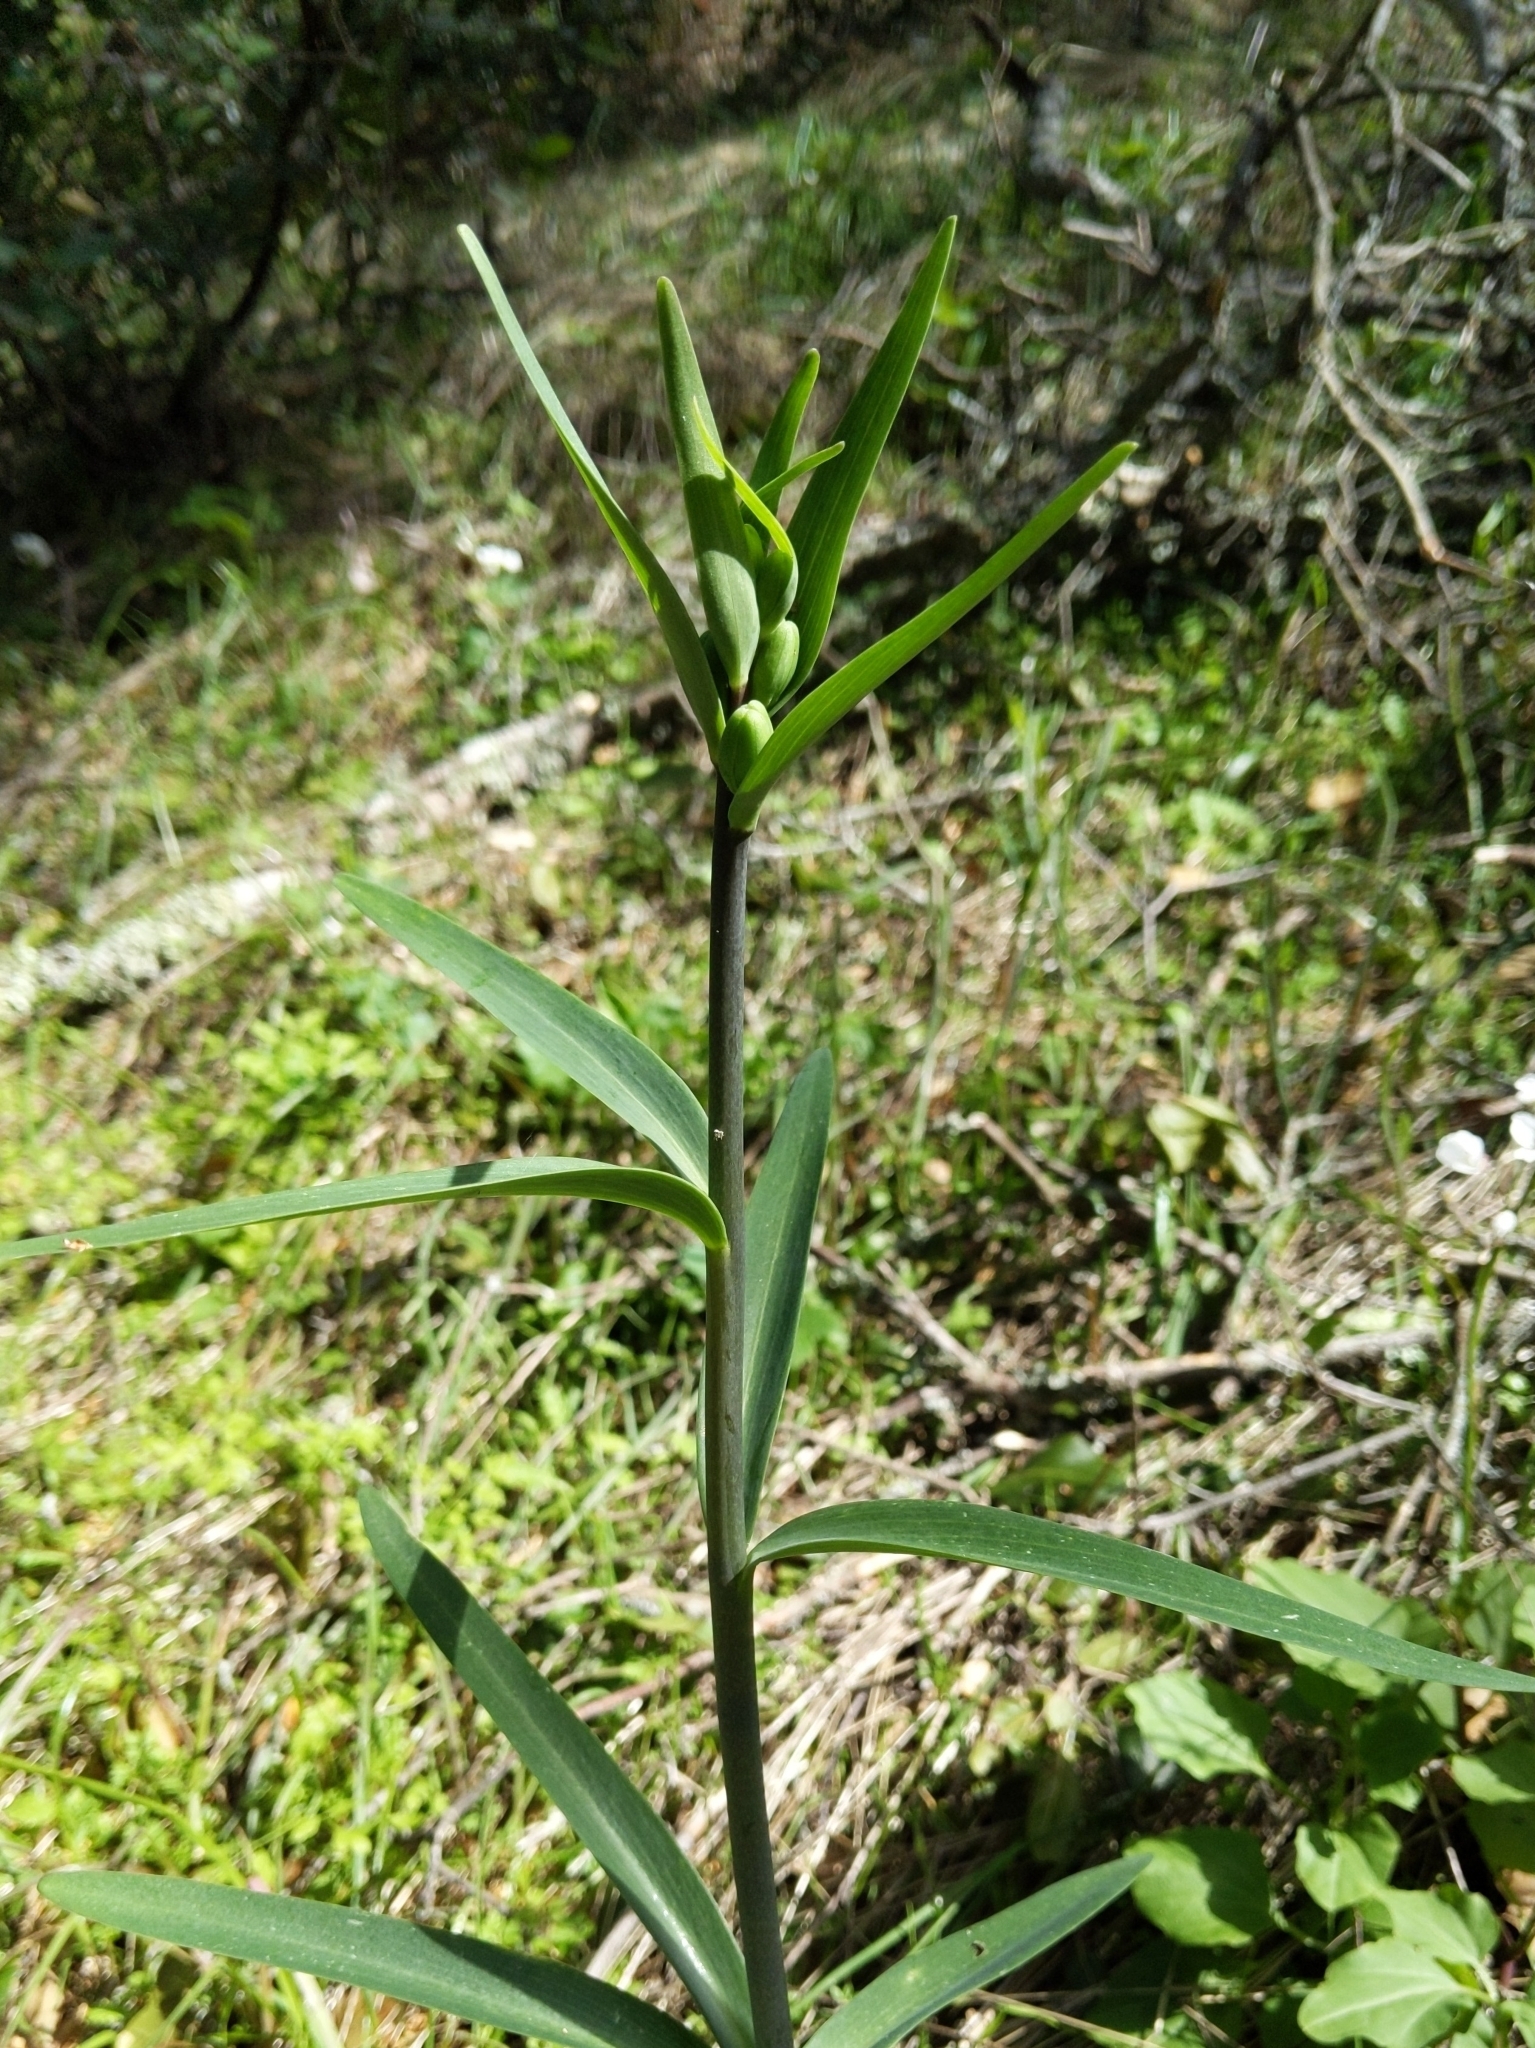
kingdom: Plantae
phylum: Tracheophyta
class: Liliopsida
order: Liliales
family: Liliaceae
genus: Fritillaria
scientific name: Fritillaria affinis
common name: Ojai fritillary
